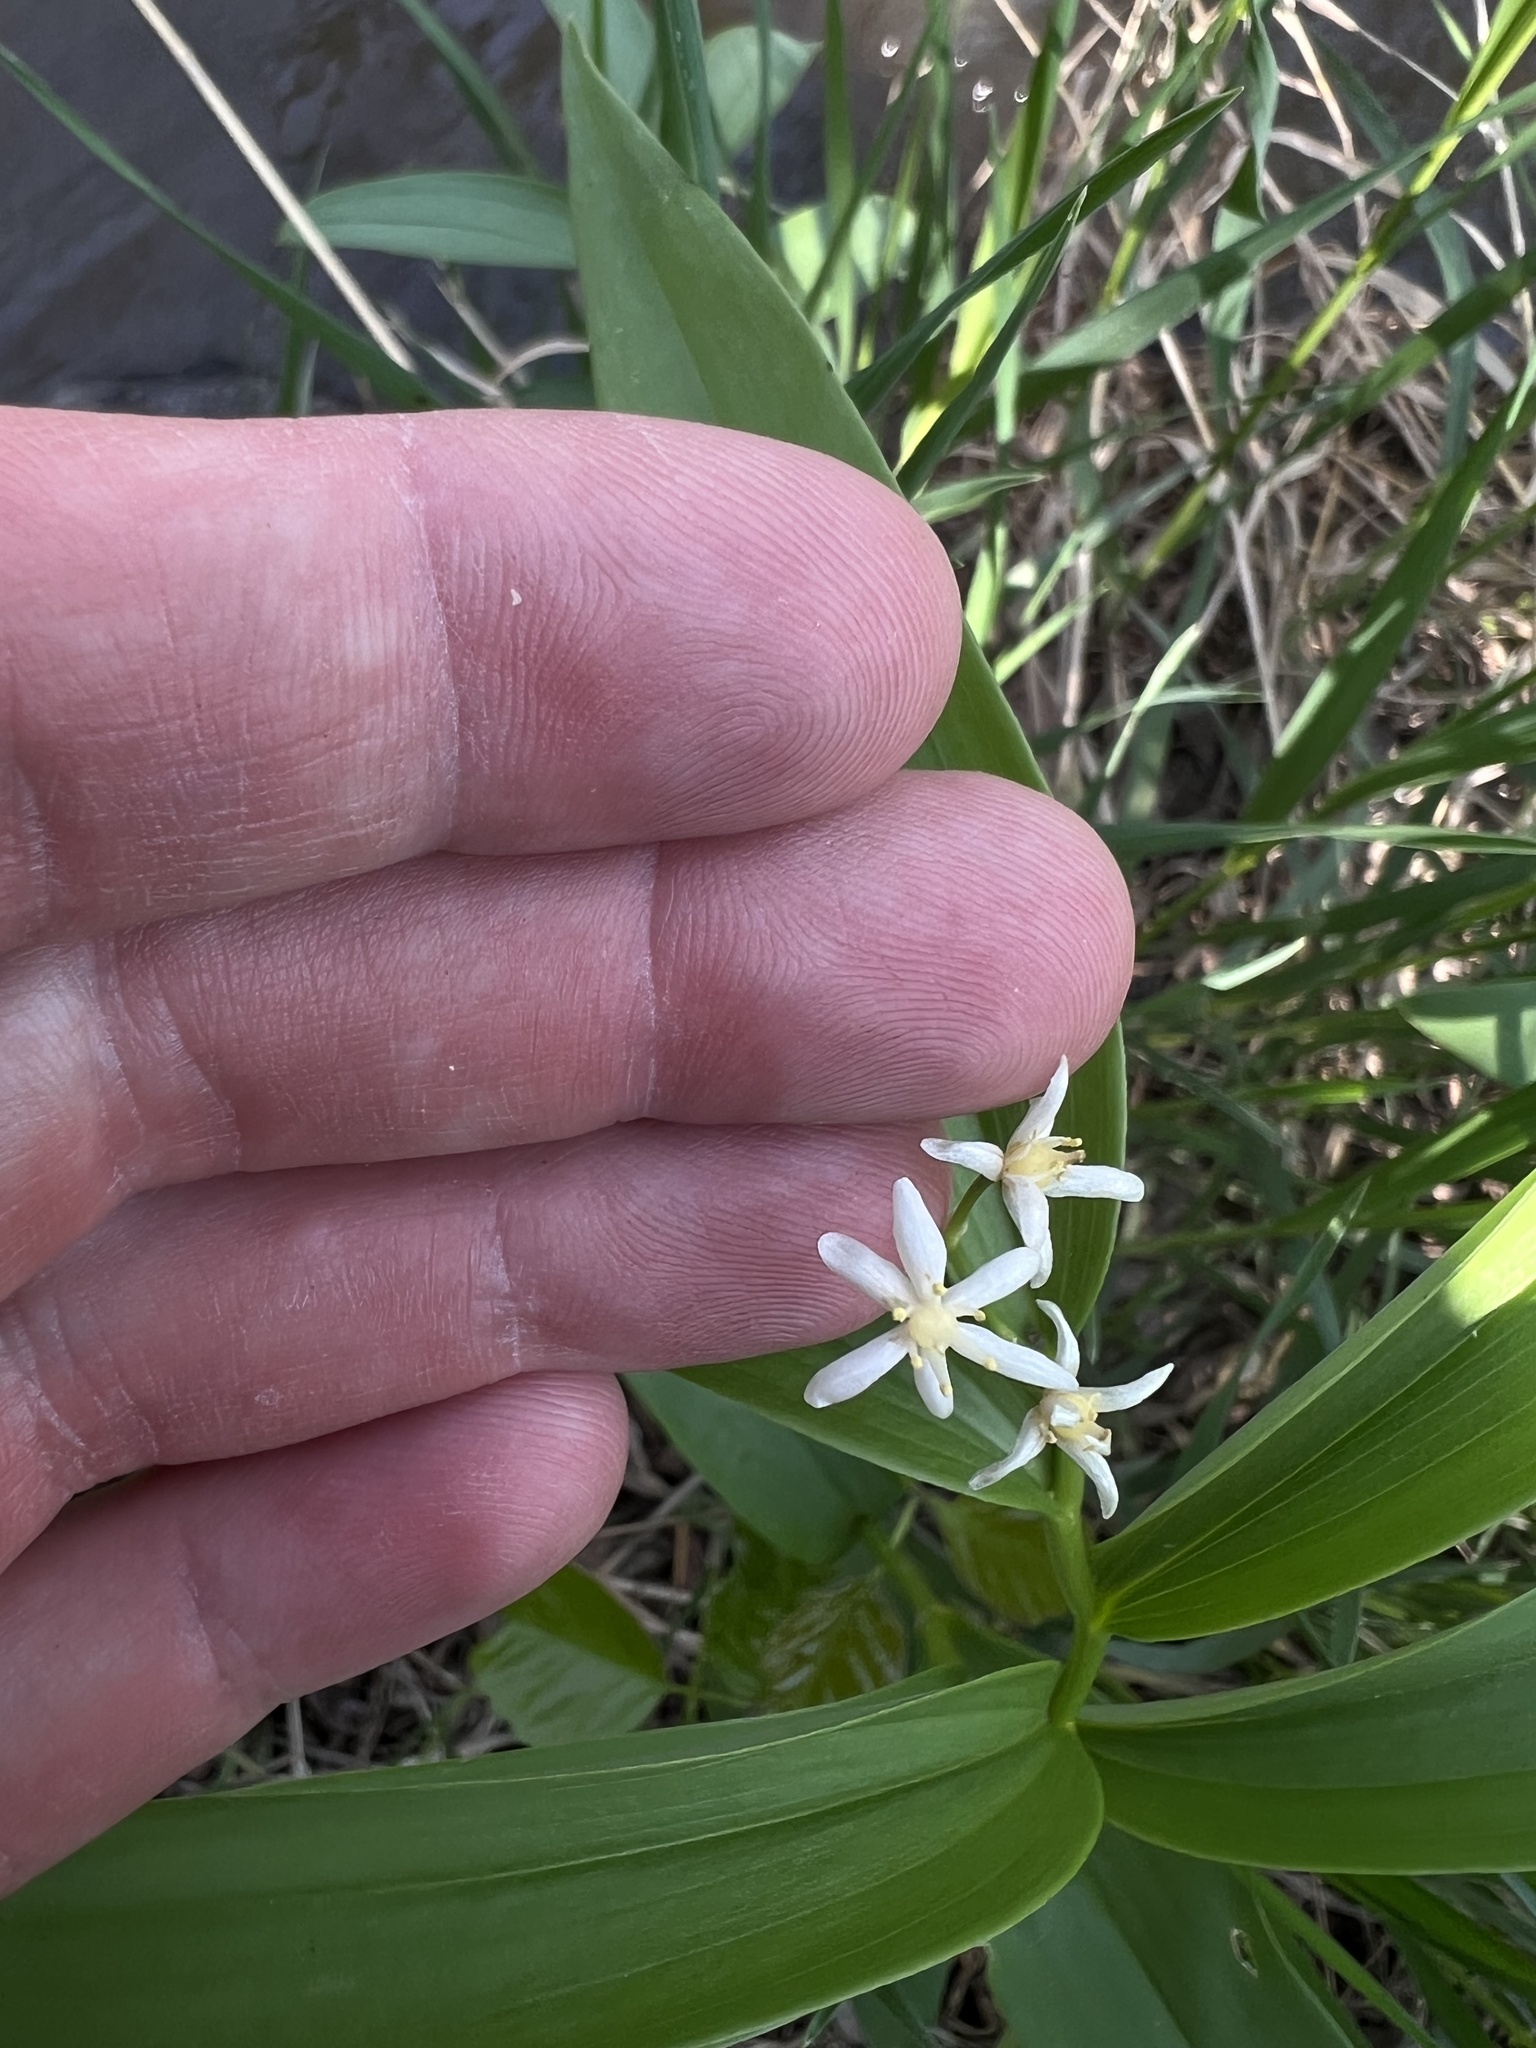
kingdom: Plantae
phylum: Tracheophyta
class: Liliopsida
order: Asparagales
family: Asparagaceae
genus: Maianthemum
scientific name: Maianthemum stellatum
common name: Little false solomon's seal
